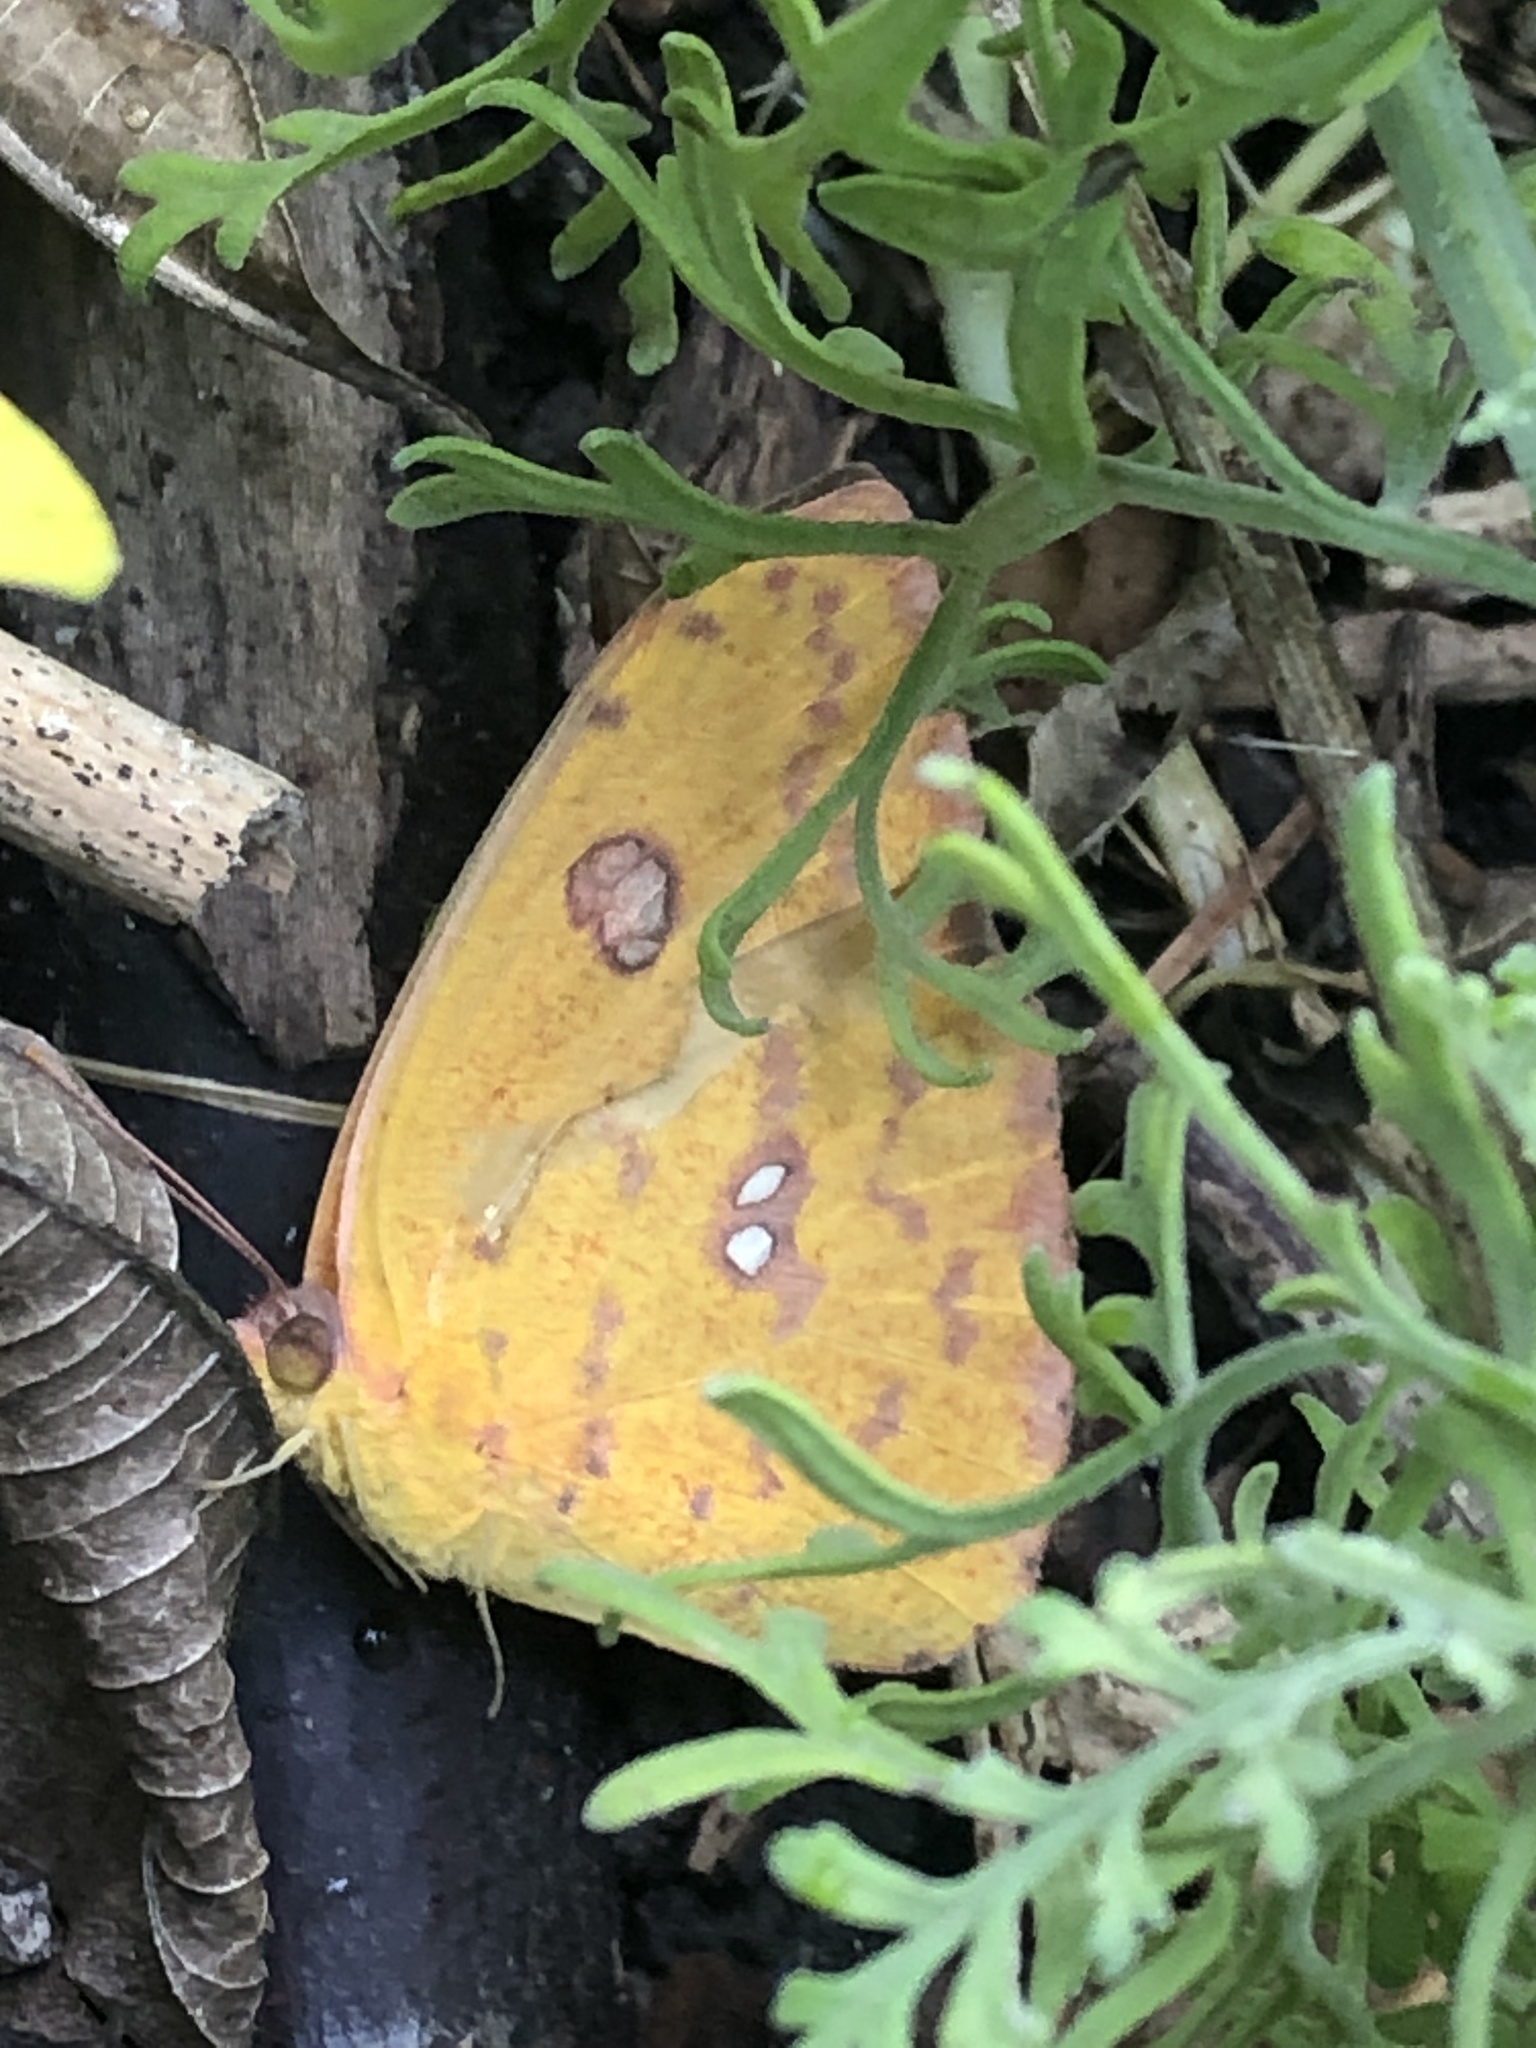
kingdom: Animalia
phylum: Arthropoda
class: Insecta
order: Lepidoptera
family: Pieridae
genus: Phoebis
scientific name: Phoebis marcellina
